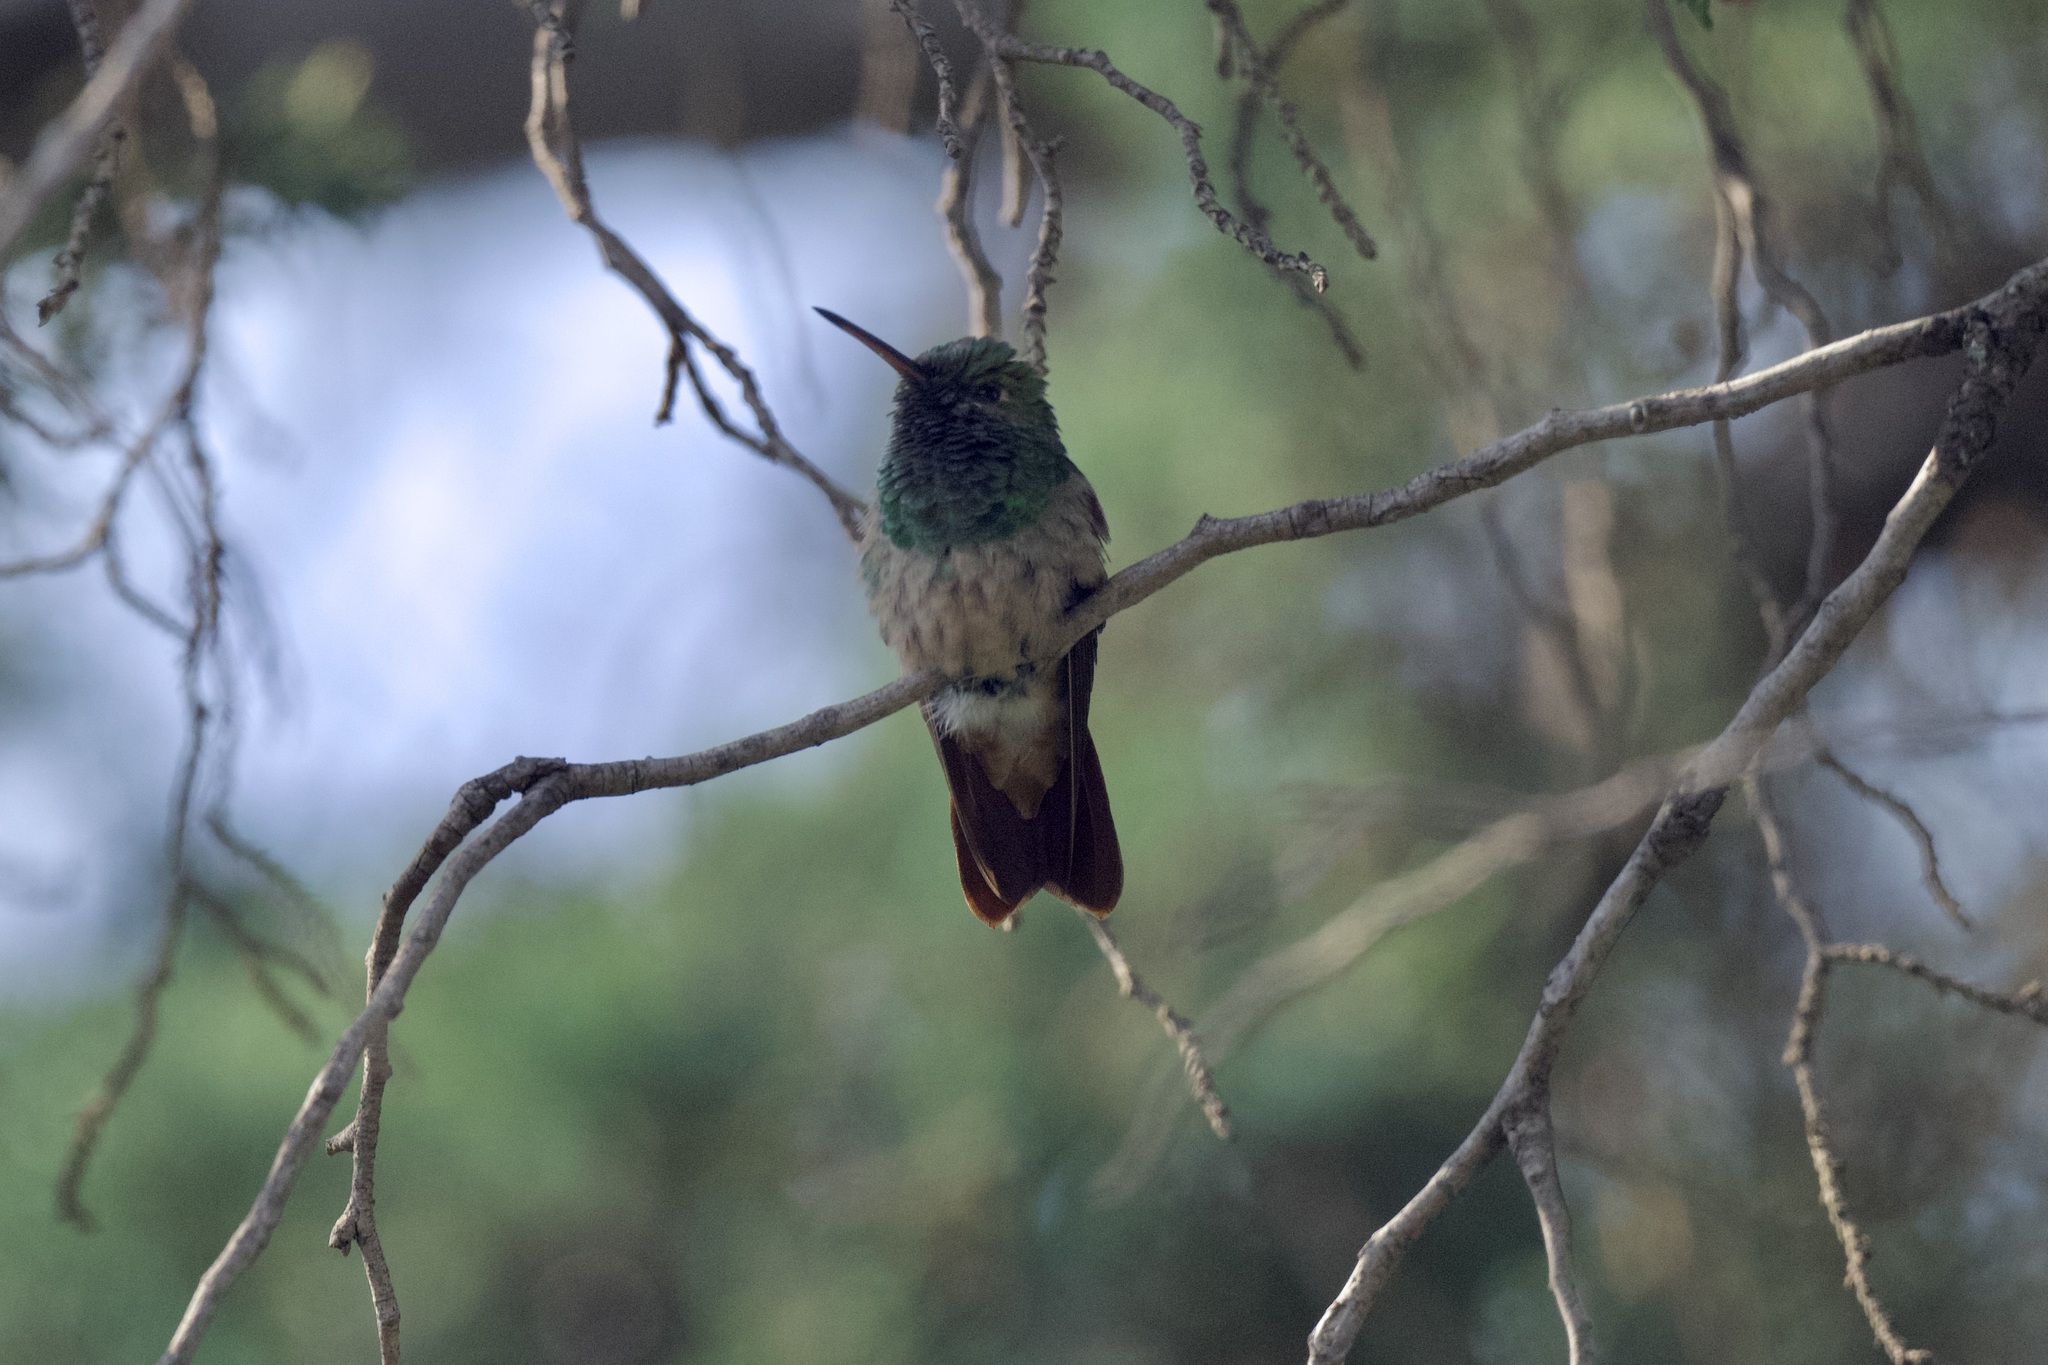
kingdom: Animalia
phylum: Chordata
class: Aves
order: Apodiformes
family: Trochilidae
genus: Saucerottia
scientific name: Saucerottia beryllina
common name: Berylline hummingbird
